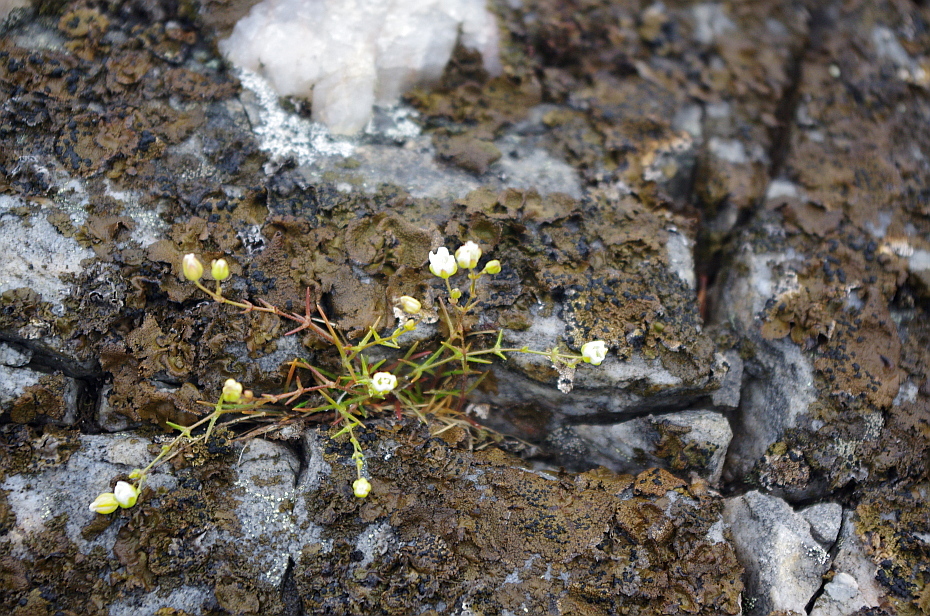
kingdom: Plantae
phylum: Tracheophyta
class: Magnoliopsida
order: Caryophyllales
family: Caryophyllaceae
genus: Sagina
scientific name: Sagina nodosa
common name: Knotted pearlwort
